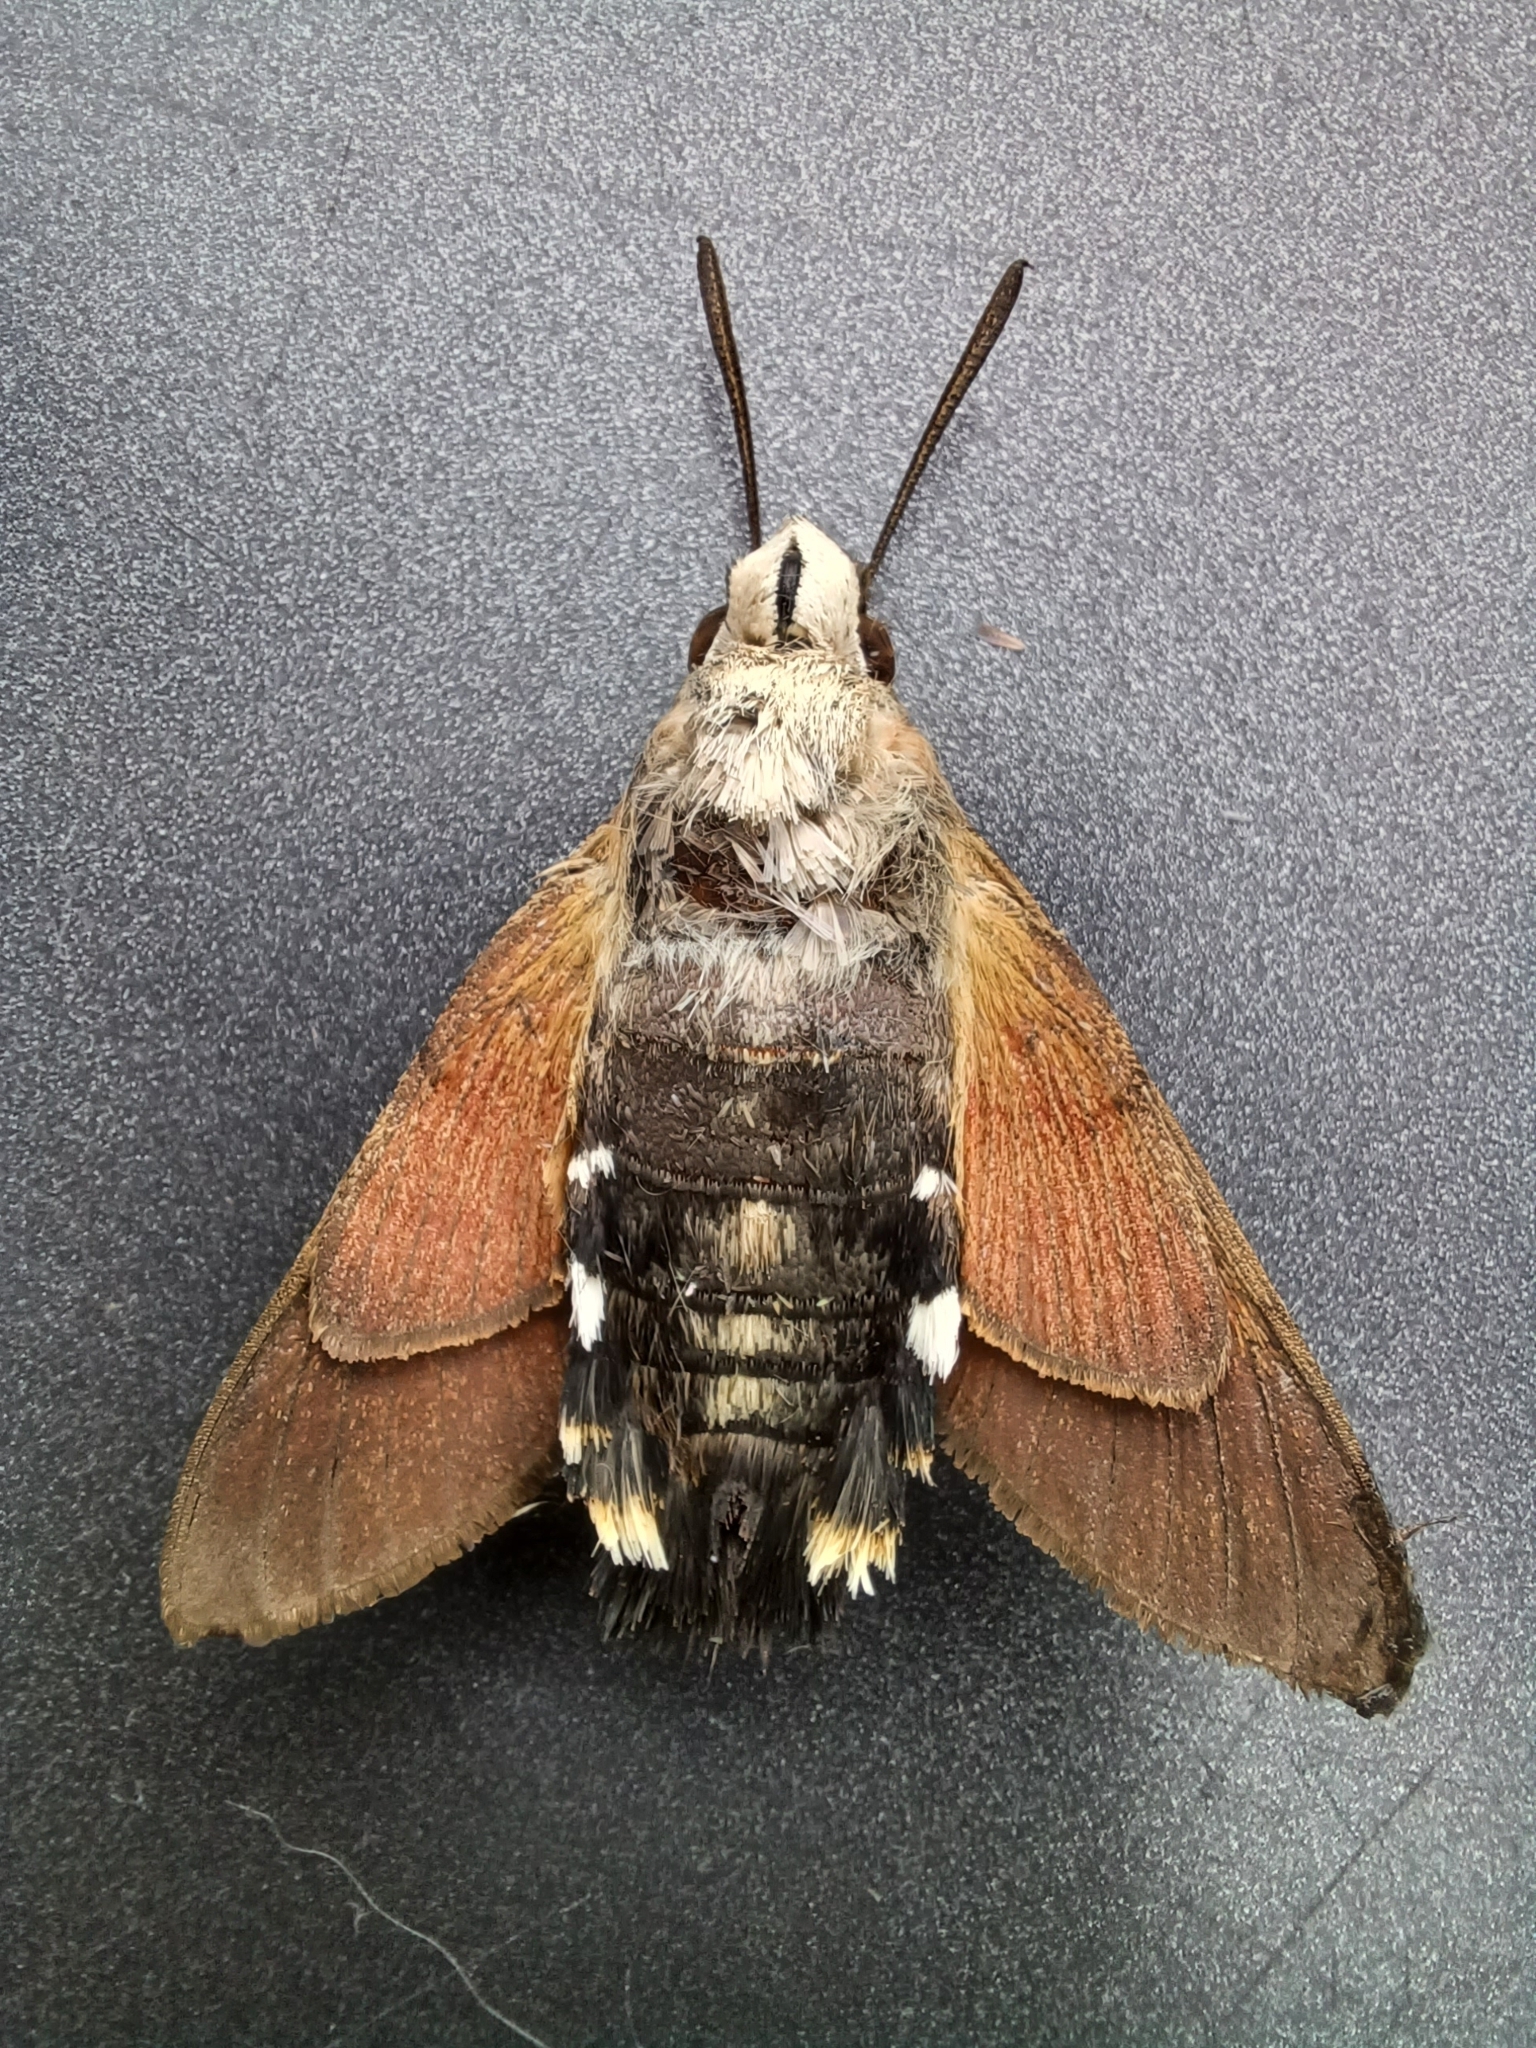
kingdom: Animalia
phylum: Arthropoda
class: Insecta
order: Lepidoptera
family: Sphingidae
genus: Macroglossum
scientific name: Macroglossum stellatarum
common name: Humming-bird hawk-moth
